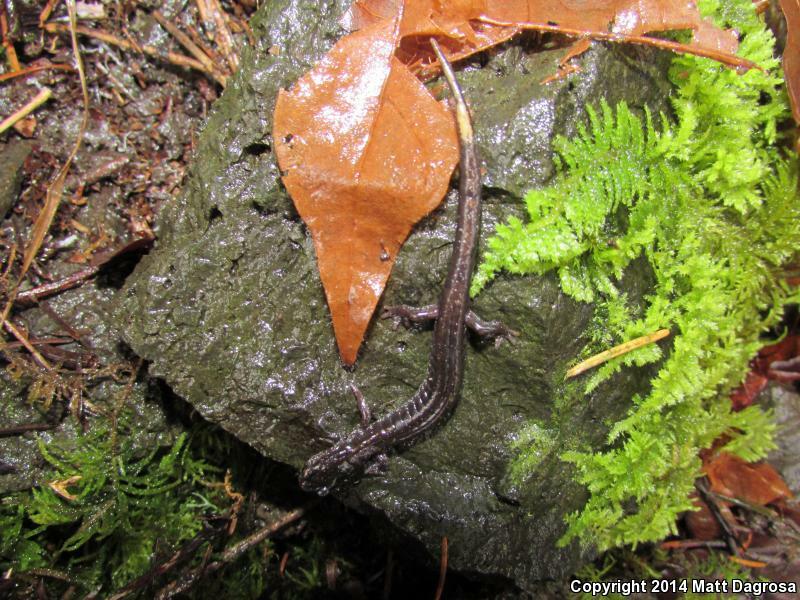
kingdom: Animalia
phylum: Chordata
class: Amphibia
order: Caudata
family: Plethodontidae
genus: Plethodon
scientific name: Plethodon vehiculum
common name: Western red-backed salamander
